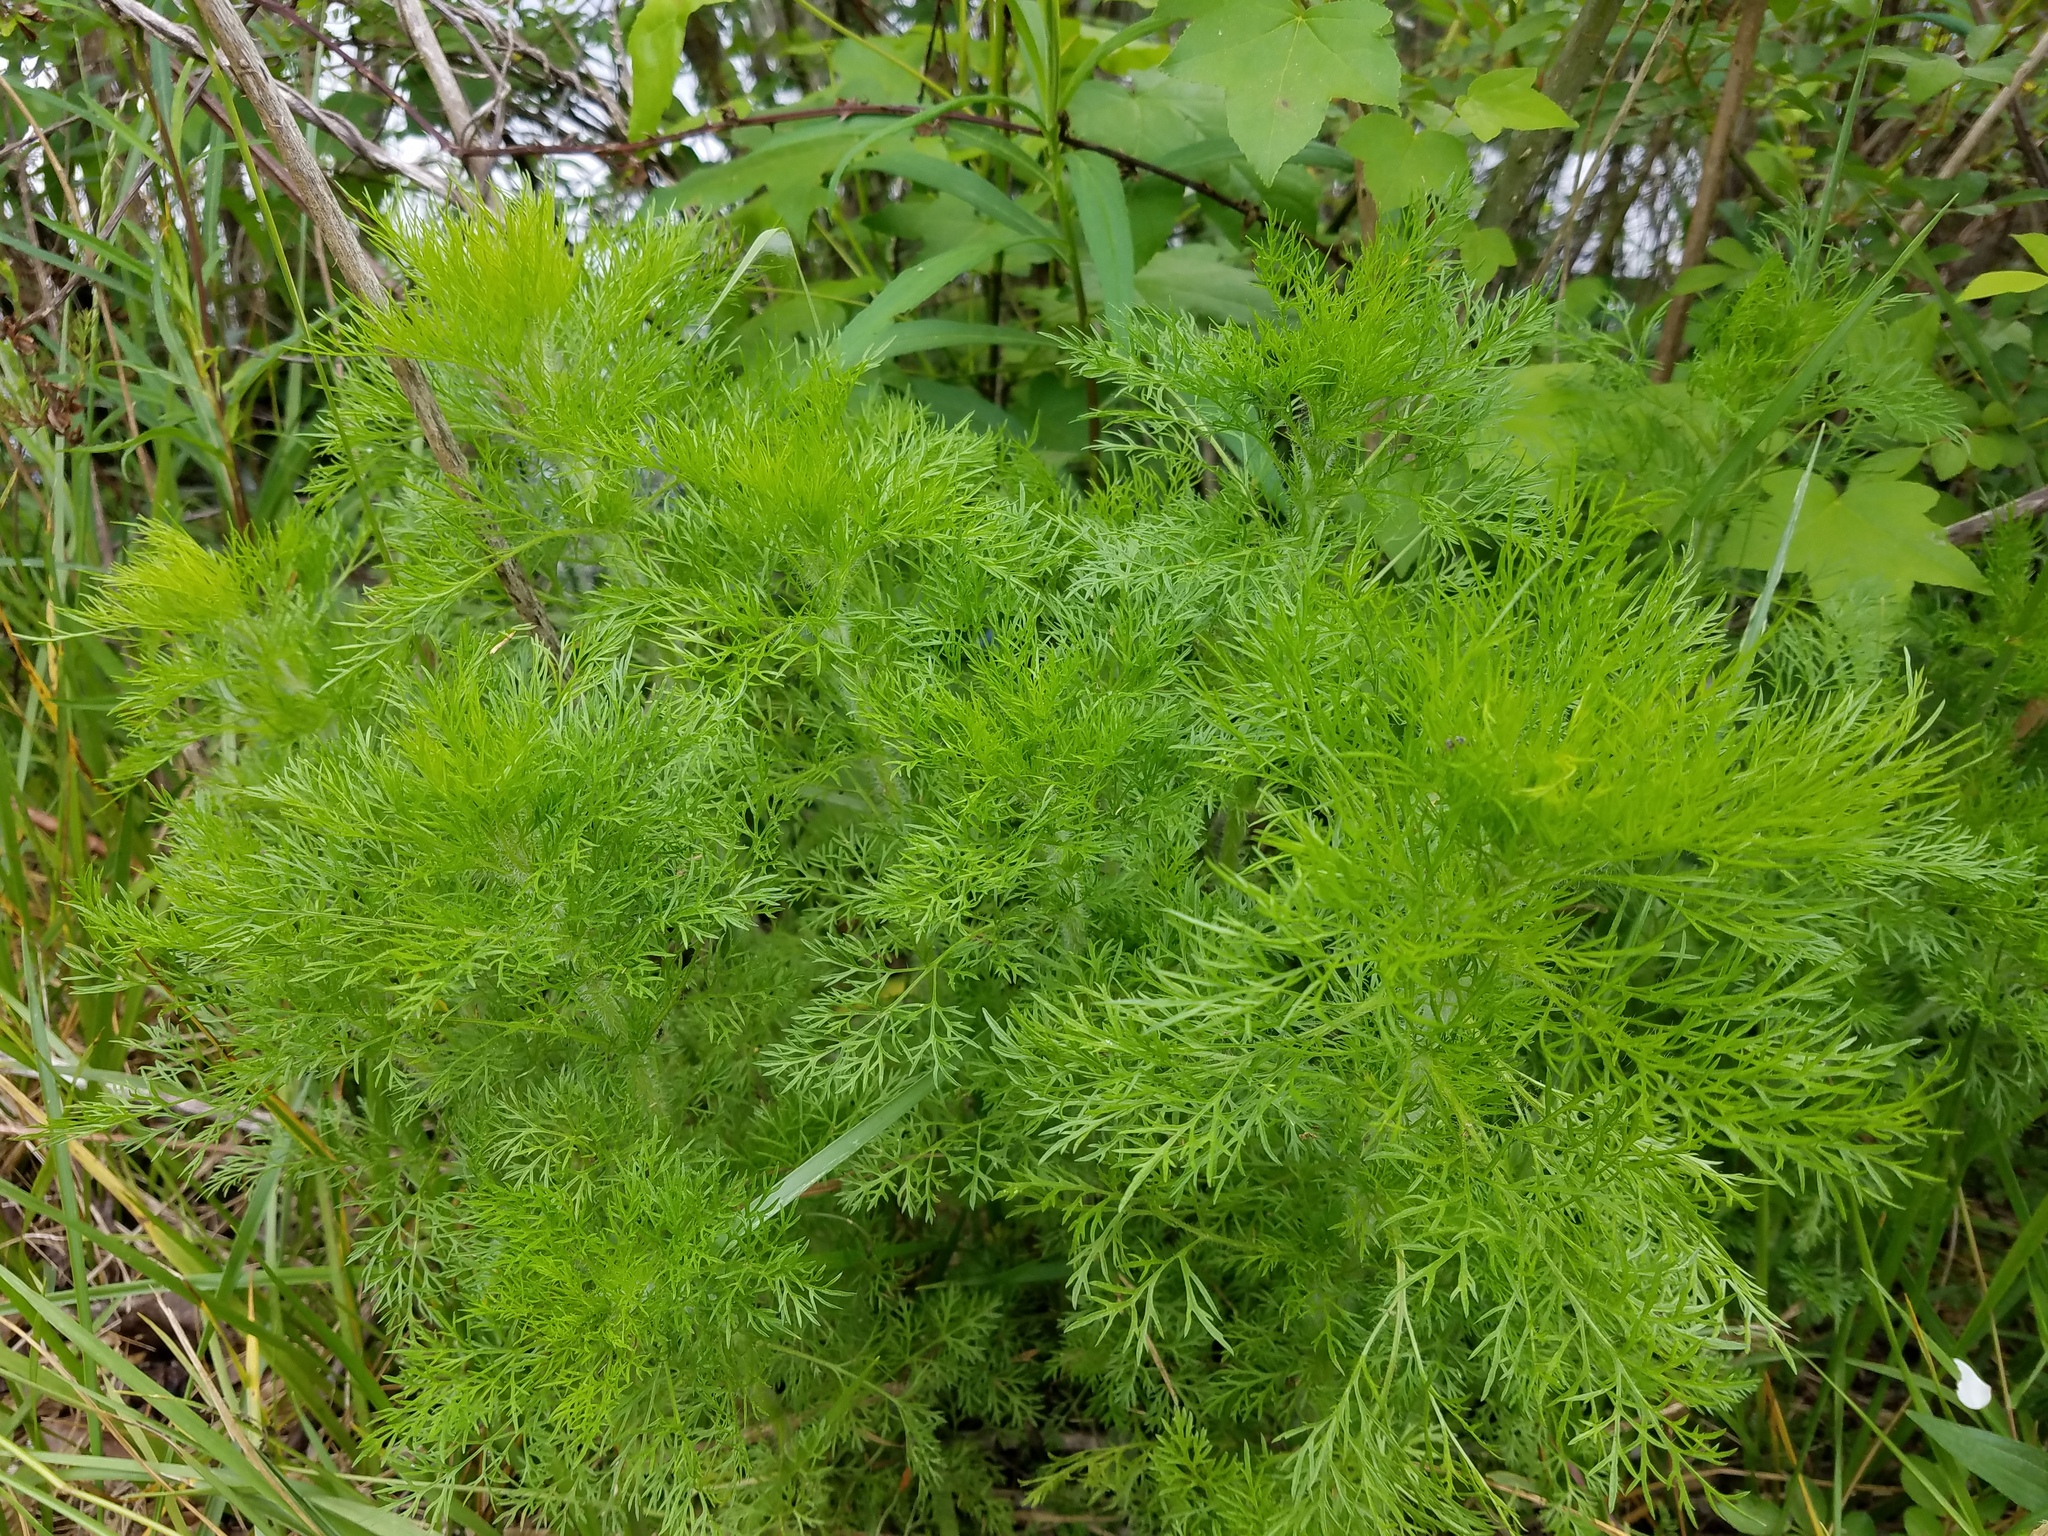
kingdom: Plantae
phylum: Tracheophyta
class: Magnoliopsida
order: Asterales
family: Asteraceae
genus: Eupatorium
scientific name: Eupatorium capillifolium
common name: Dog-fennel
